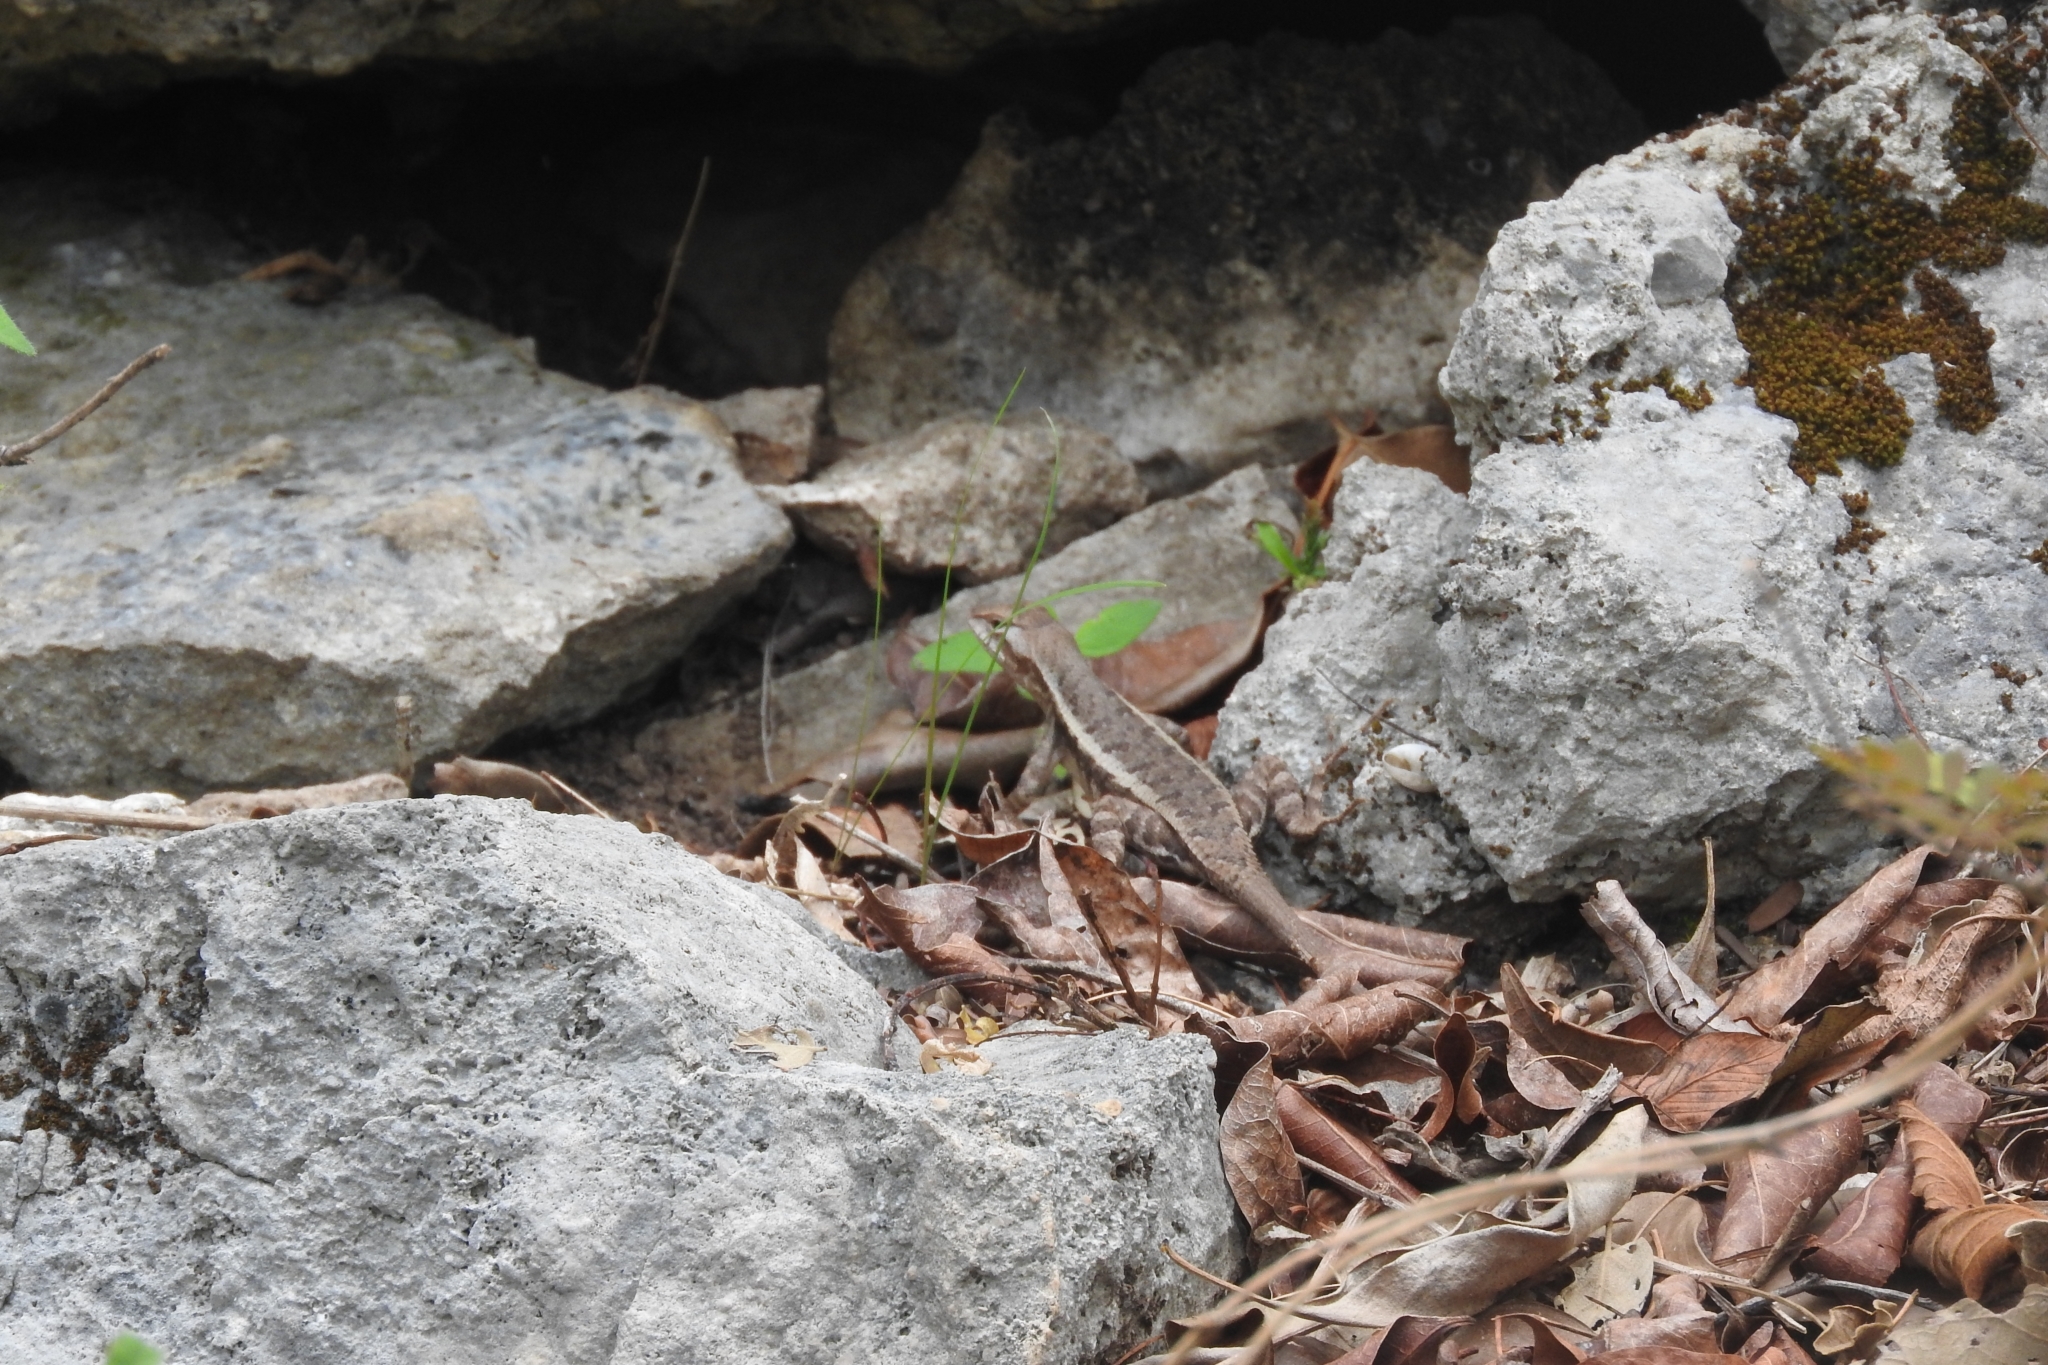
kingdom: Animalia
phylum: Chordata
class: Squamata
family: Phrynosomatidae
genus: Sceloporus
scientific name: Sceloporus chrysostictus
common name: Yellow-spotted spiny lizard
